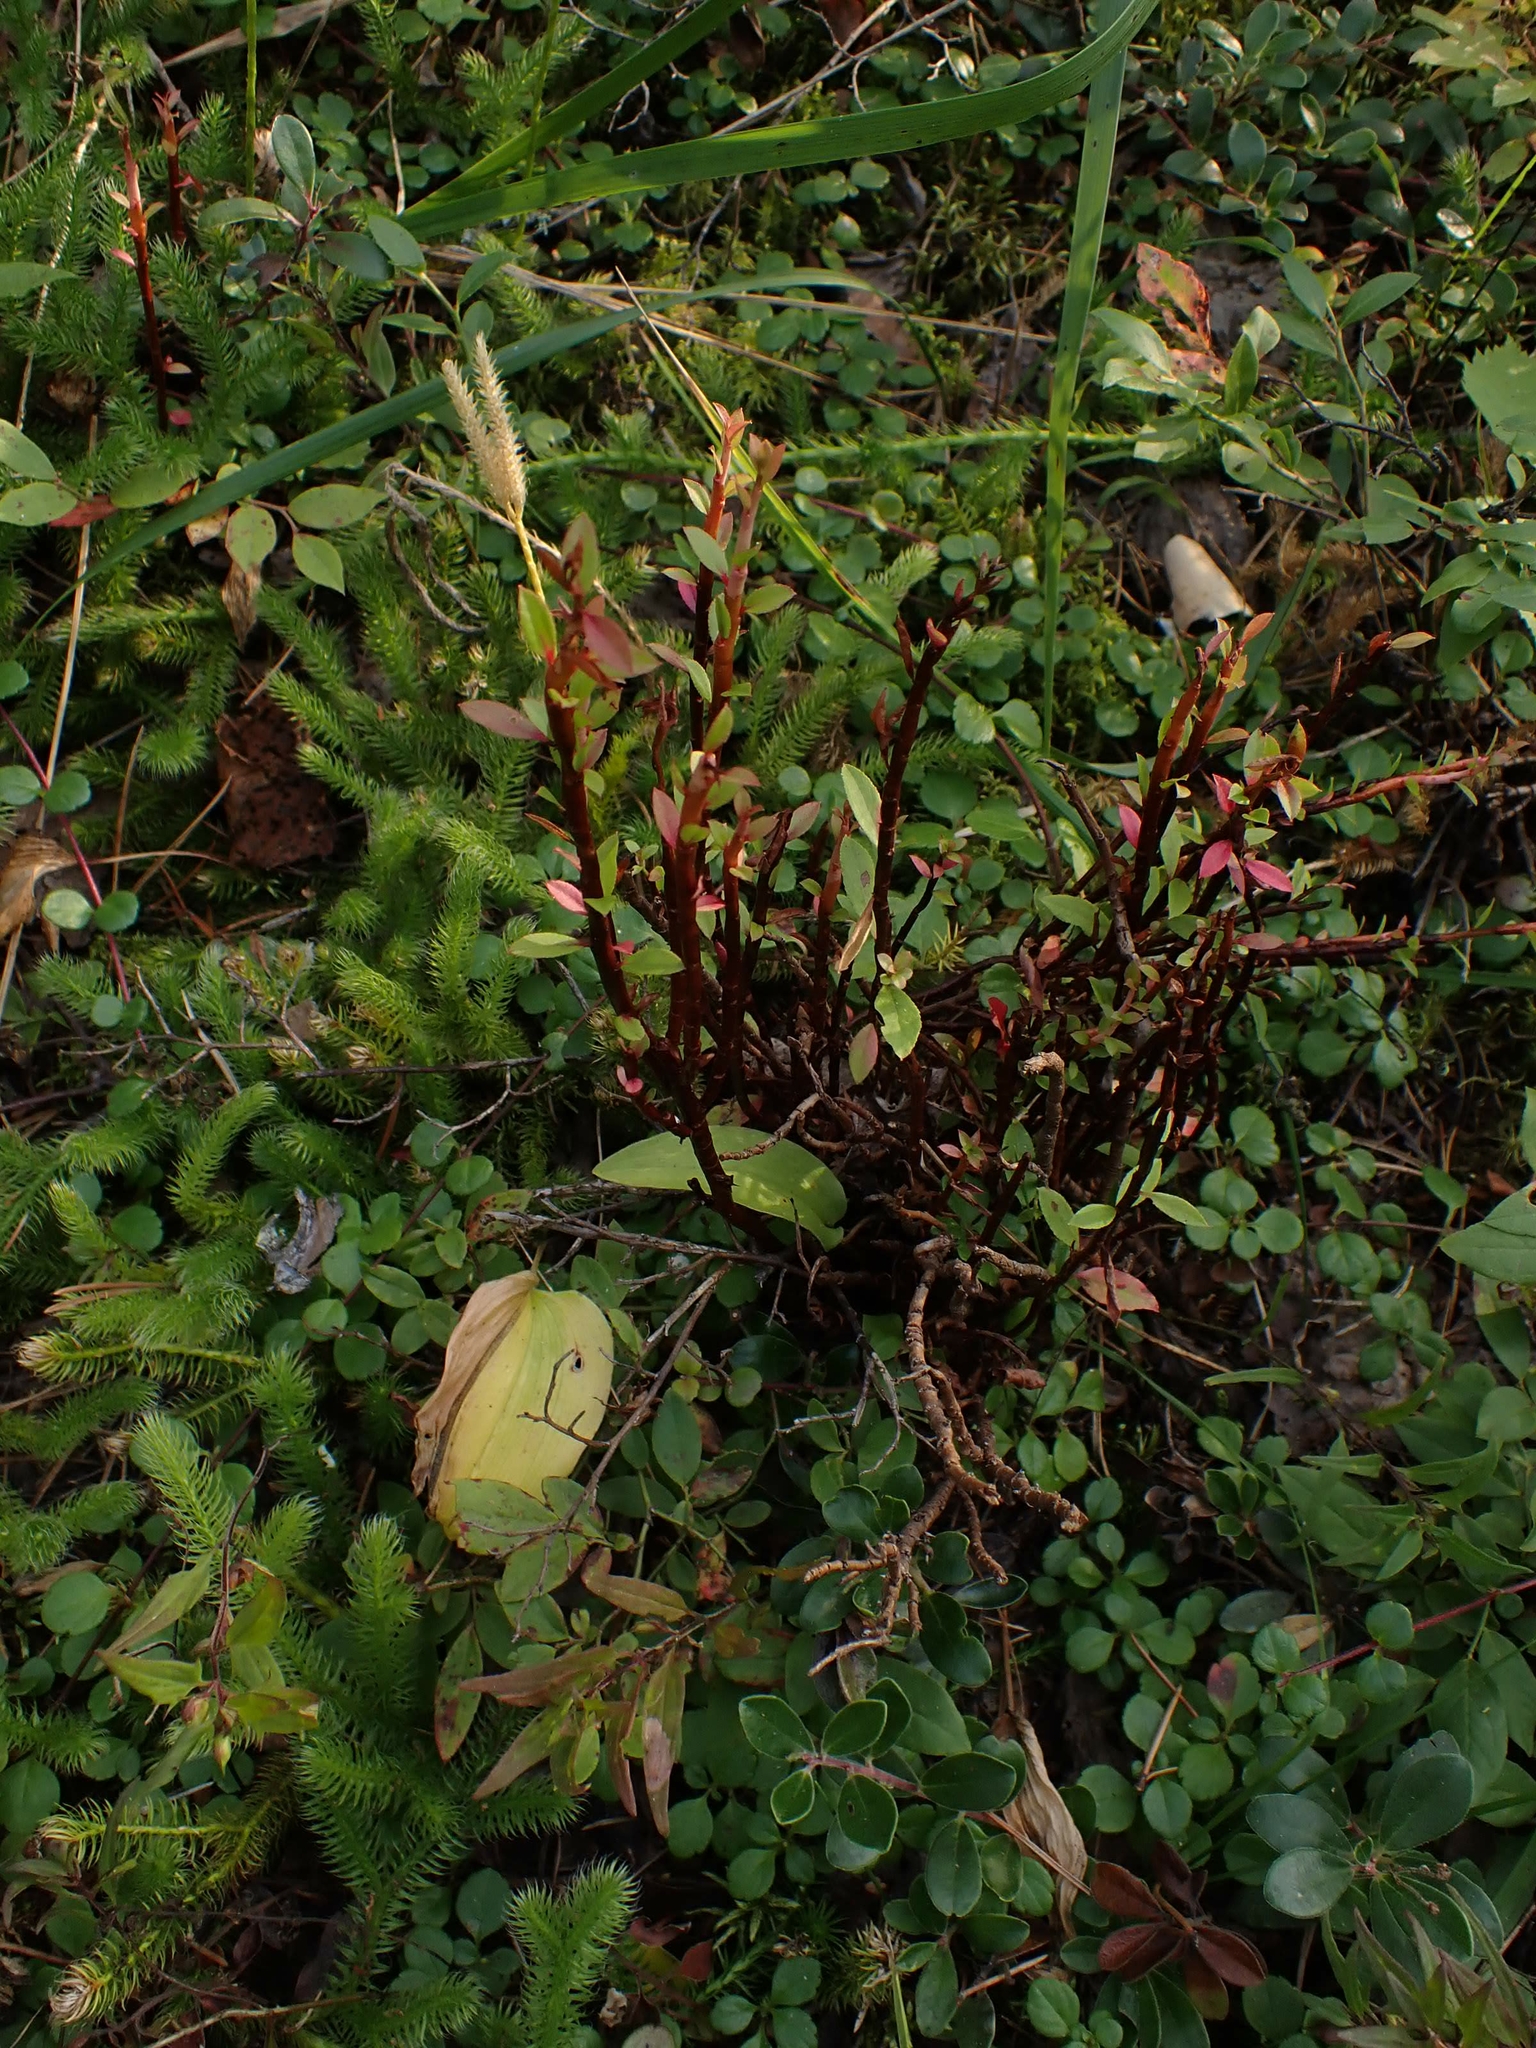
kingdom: Plantae
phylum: Tracheophyta
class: Magnoliopsida
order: Ericales
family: Ericaceae
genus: Vaccinium
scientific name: Vaccinium angustifolium
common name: Early lowbush blueberry
